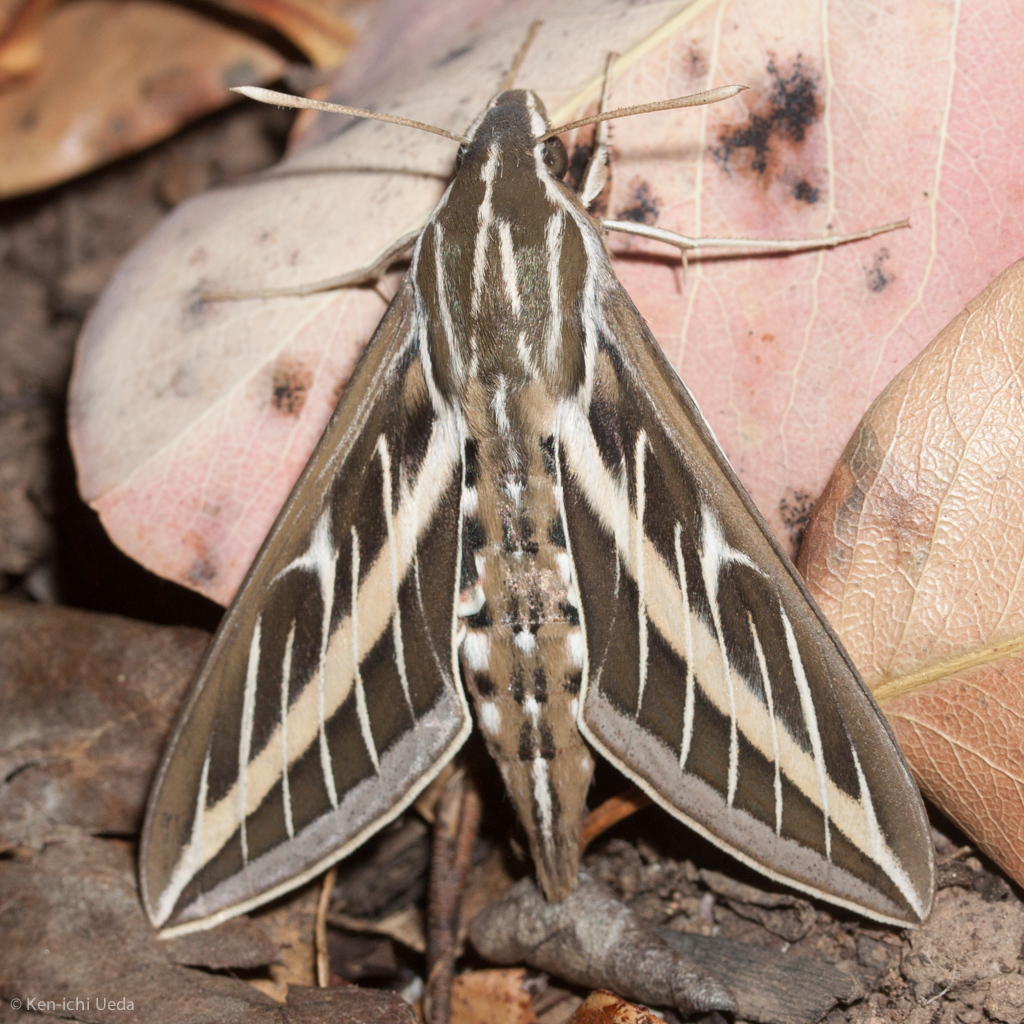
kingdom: Animalia
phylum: Arthropoda
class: Insecta
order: Lepidoptera
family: Sphingidae
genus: Hyles
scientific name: Hyles lineata
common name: White-lined sphinx
